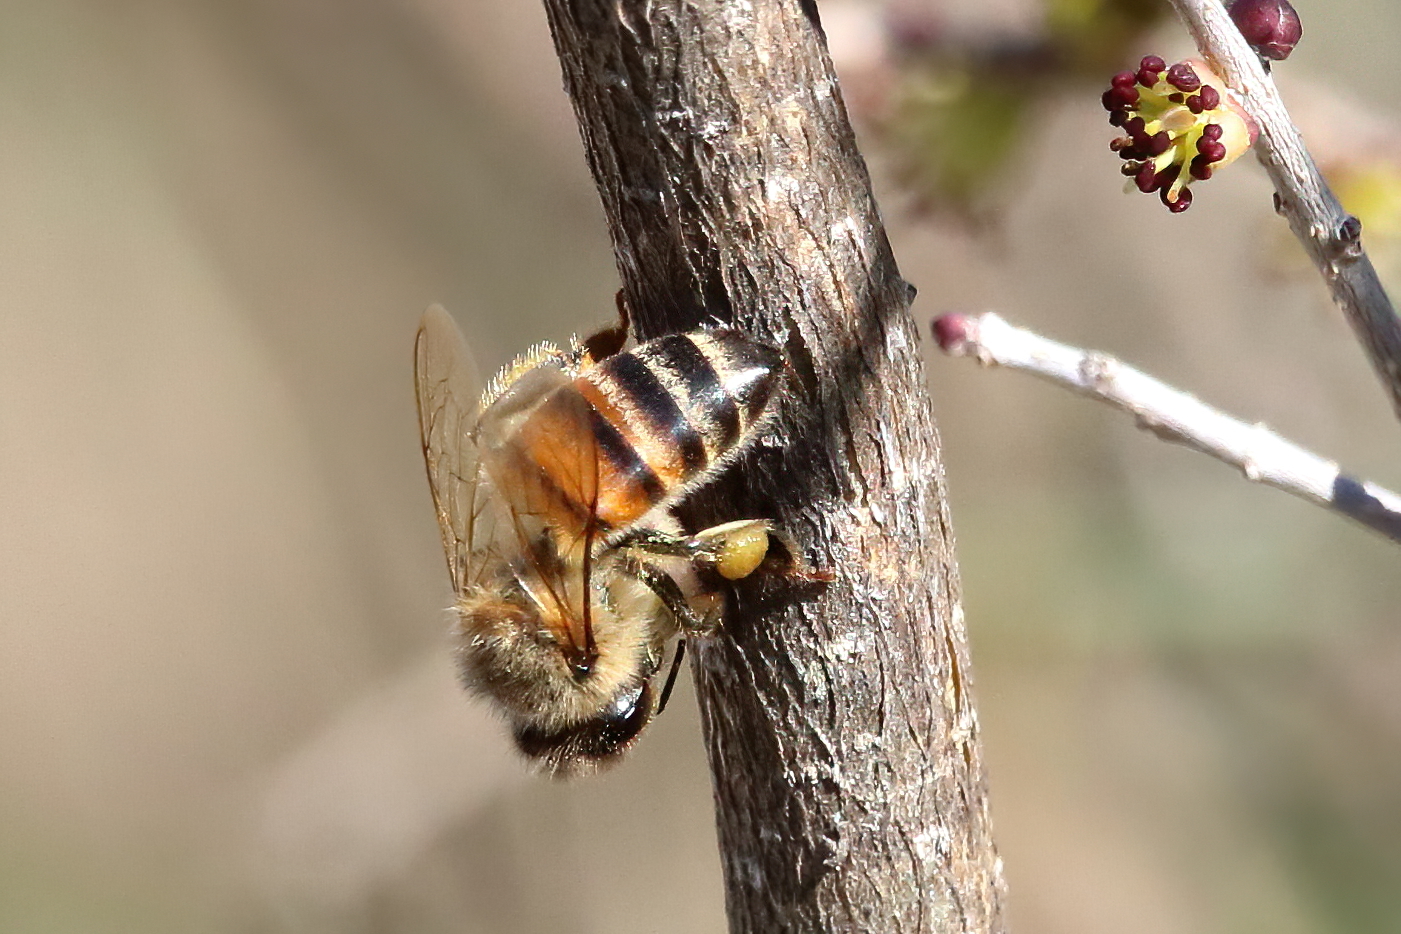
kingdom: Animalia
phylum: Arthropoda
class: Insecta
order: Hymenoptera
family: Apidae
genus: Apis
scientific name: Apis mellifera
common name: Honey bee
